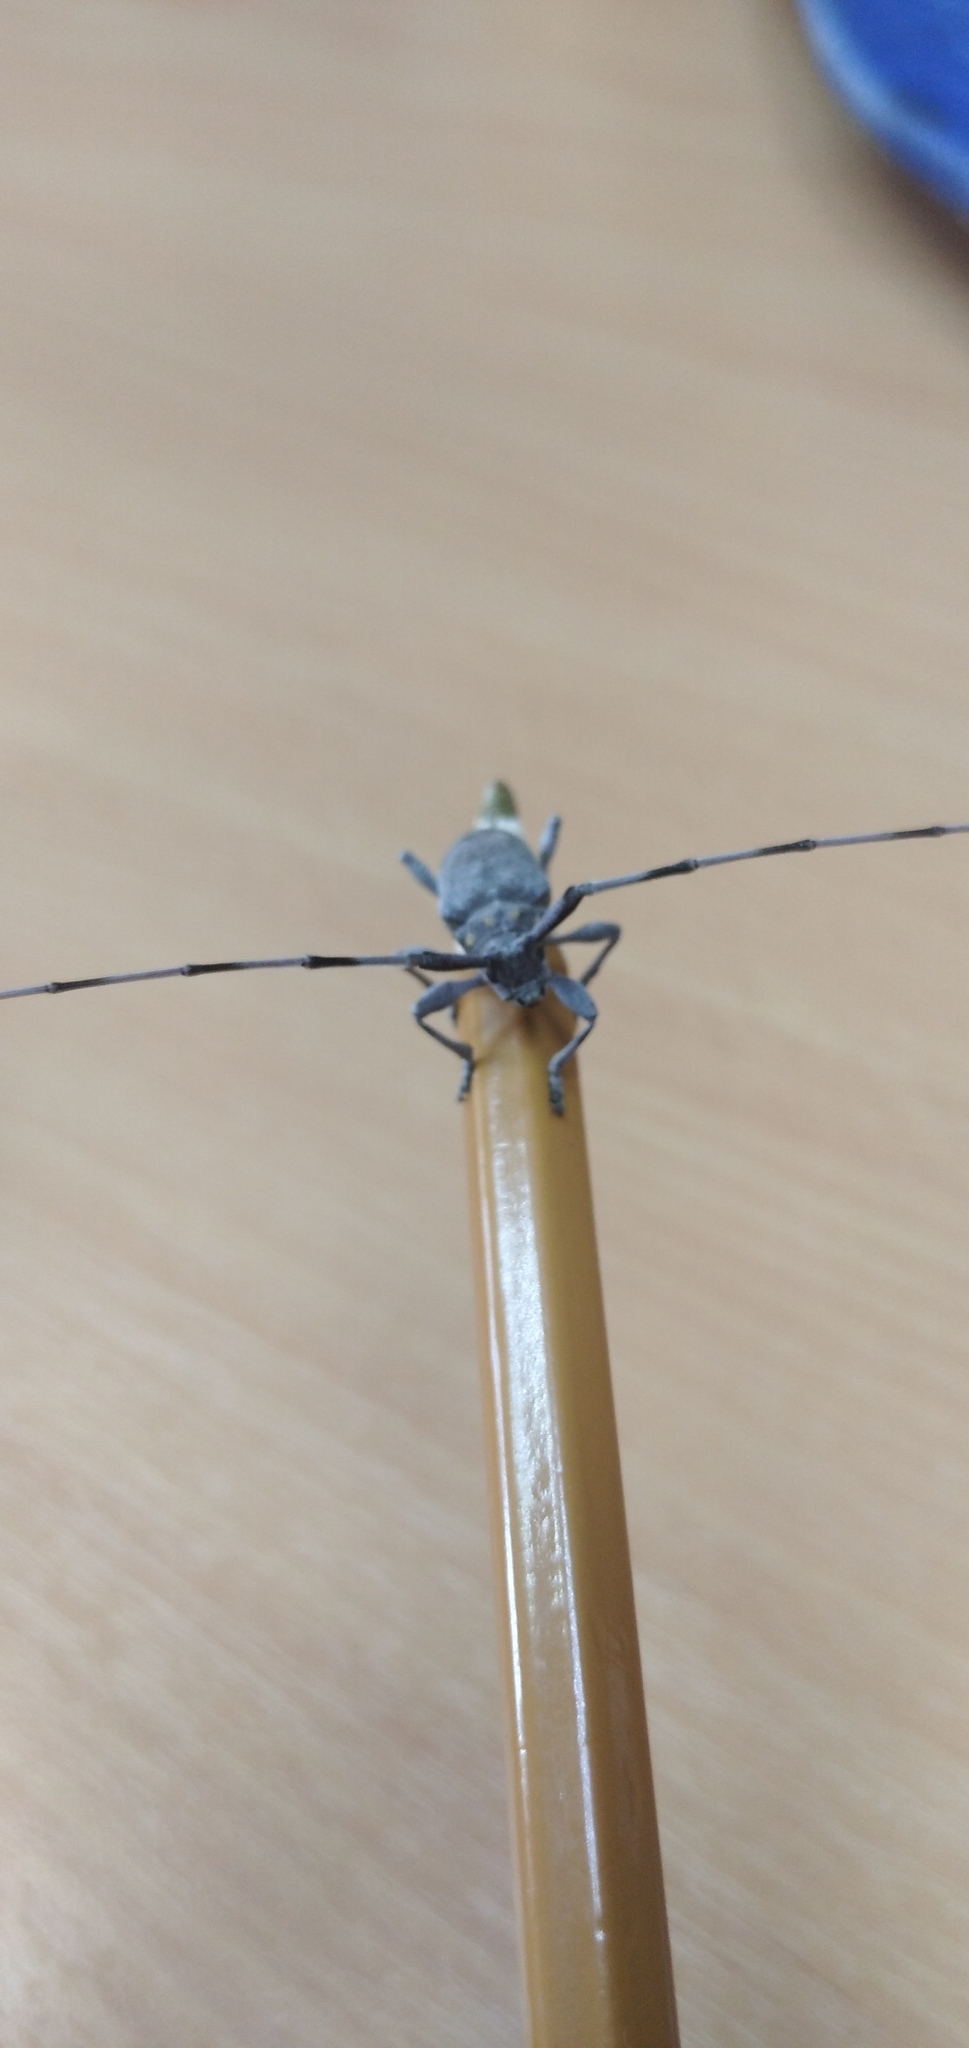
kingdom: Animalia
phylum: Arthropoda
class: Insecta
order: Coleoptera
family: Cerambycidae
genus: Acanthocinus
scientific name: Acanthocinus aedilis
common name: Timberman beetle
